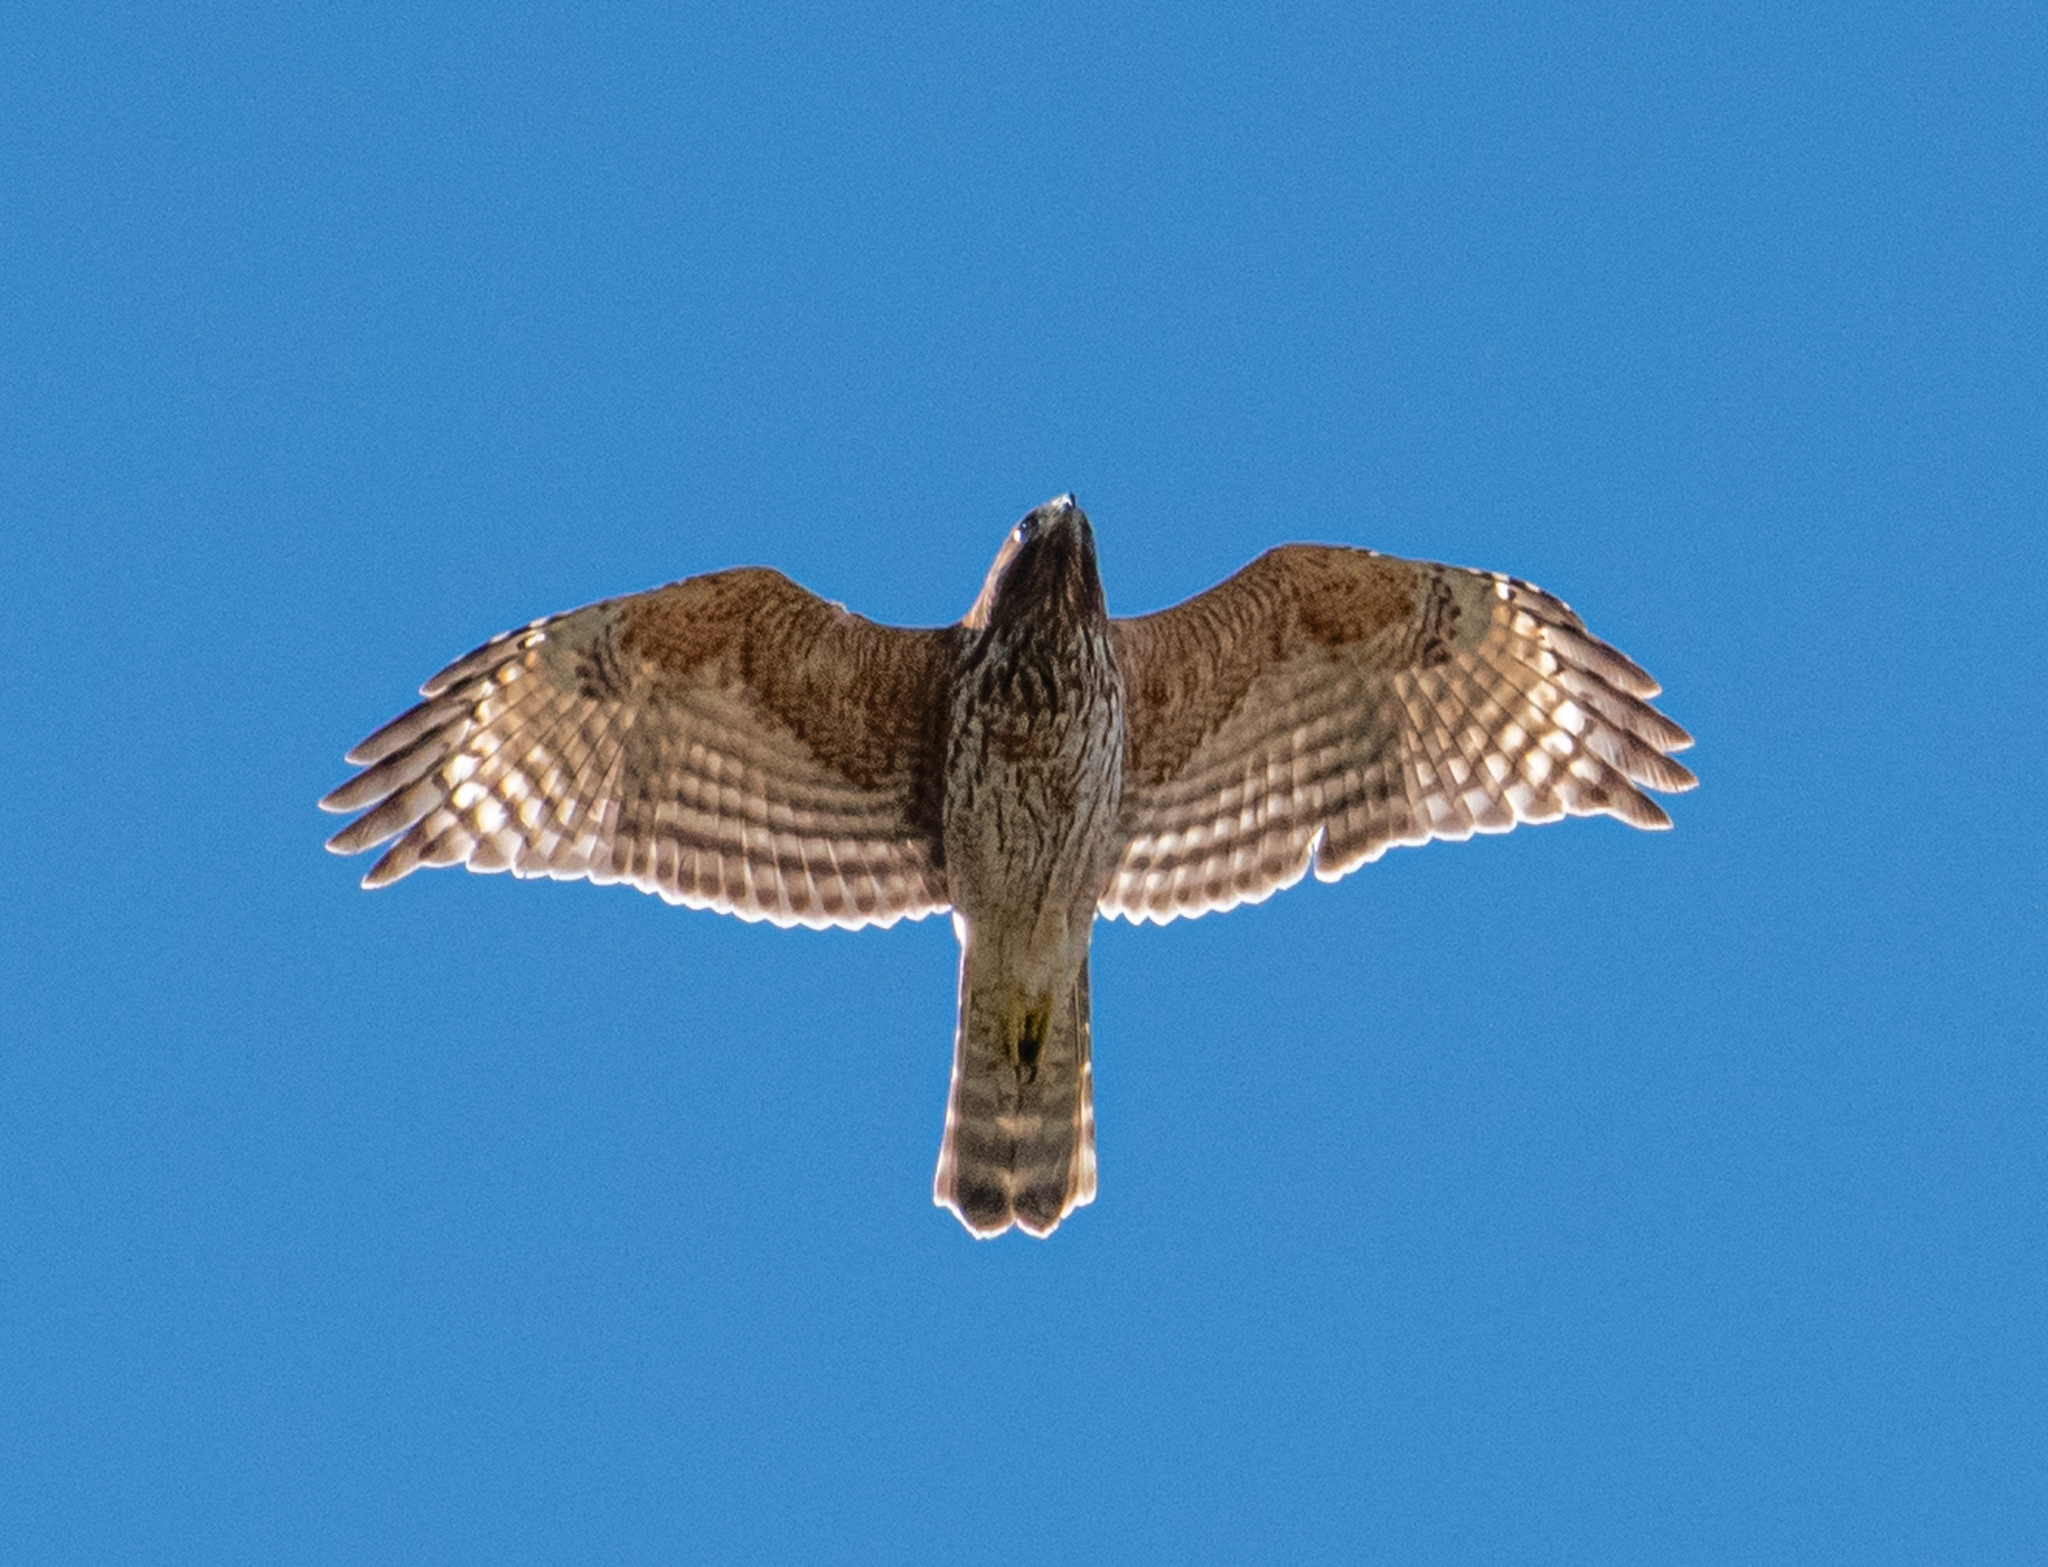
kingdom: Animalia
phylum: Chordata
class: Aves
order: Accipitriformes
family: Accipitridae
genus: Buteo
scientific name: Buteo lineatus
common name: Red-shouldered hawk
